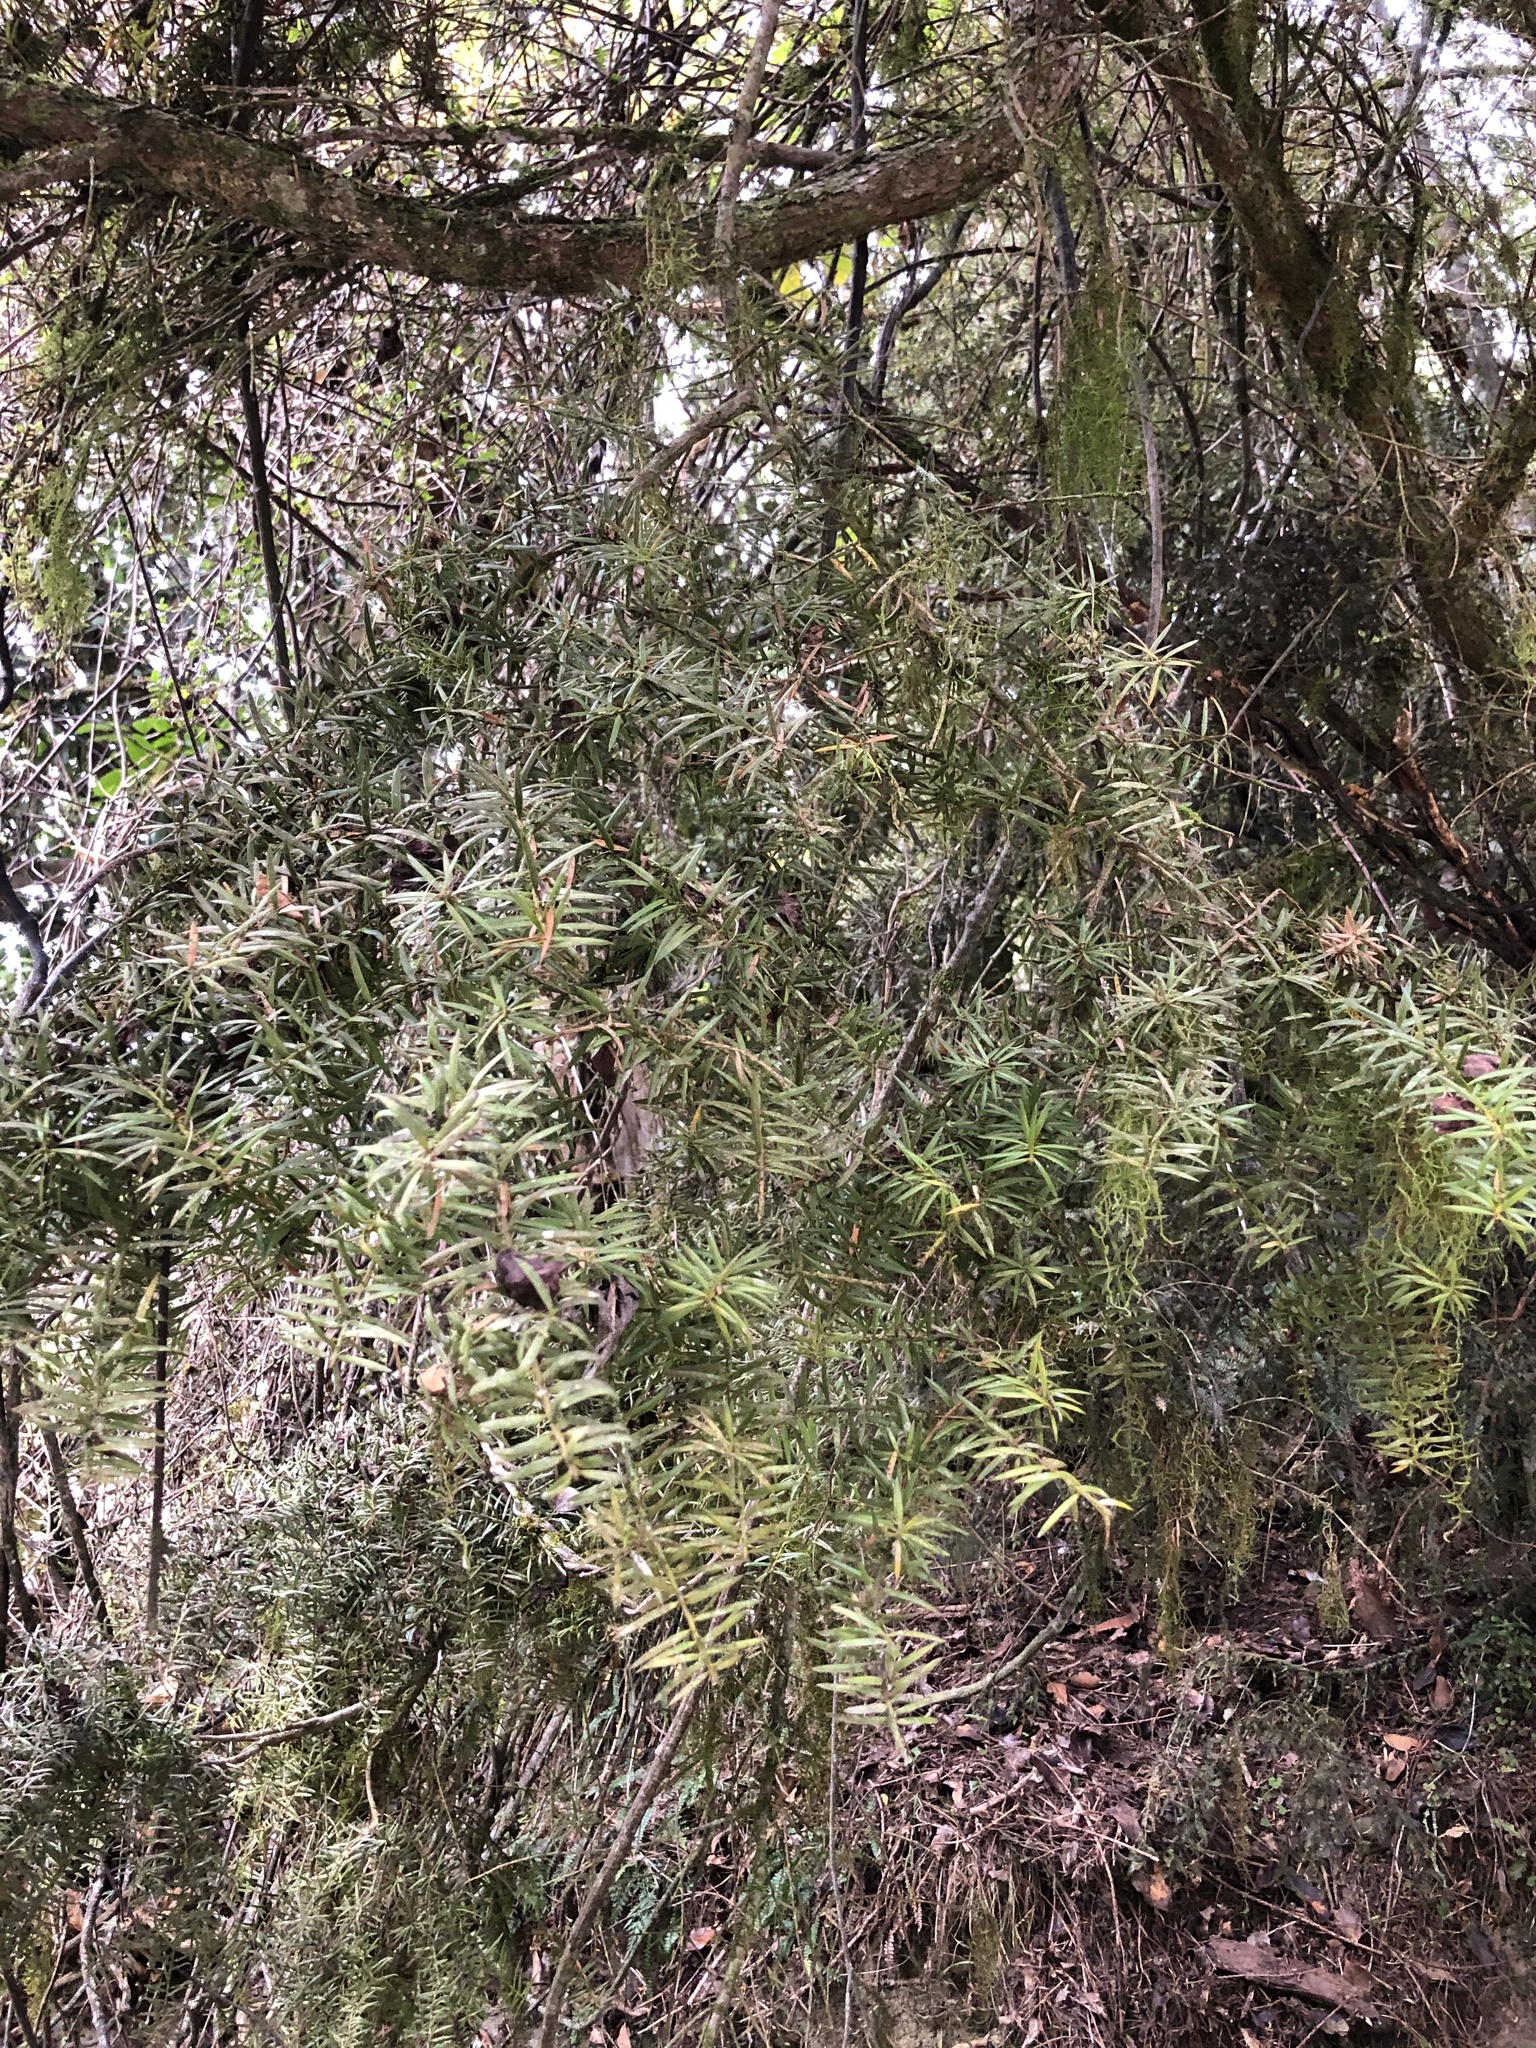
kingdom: Plantae
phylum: Tracheophyta
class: Pinopsida
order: Pinales
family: Podocarpaceae
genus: Podocarpus
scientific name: Podocarpus totara
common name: Totara
